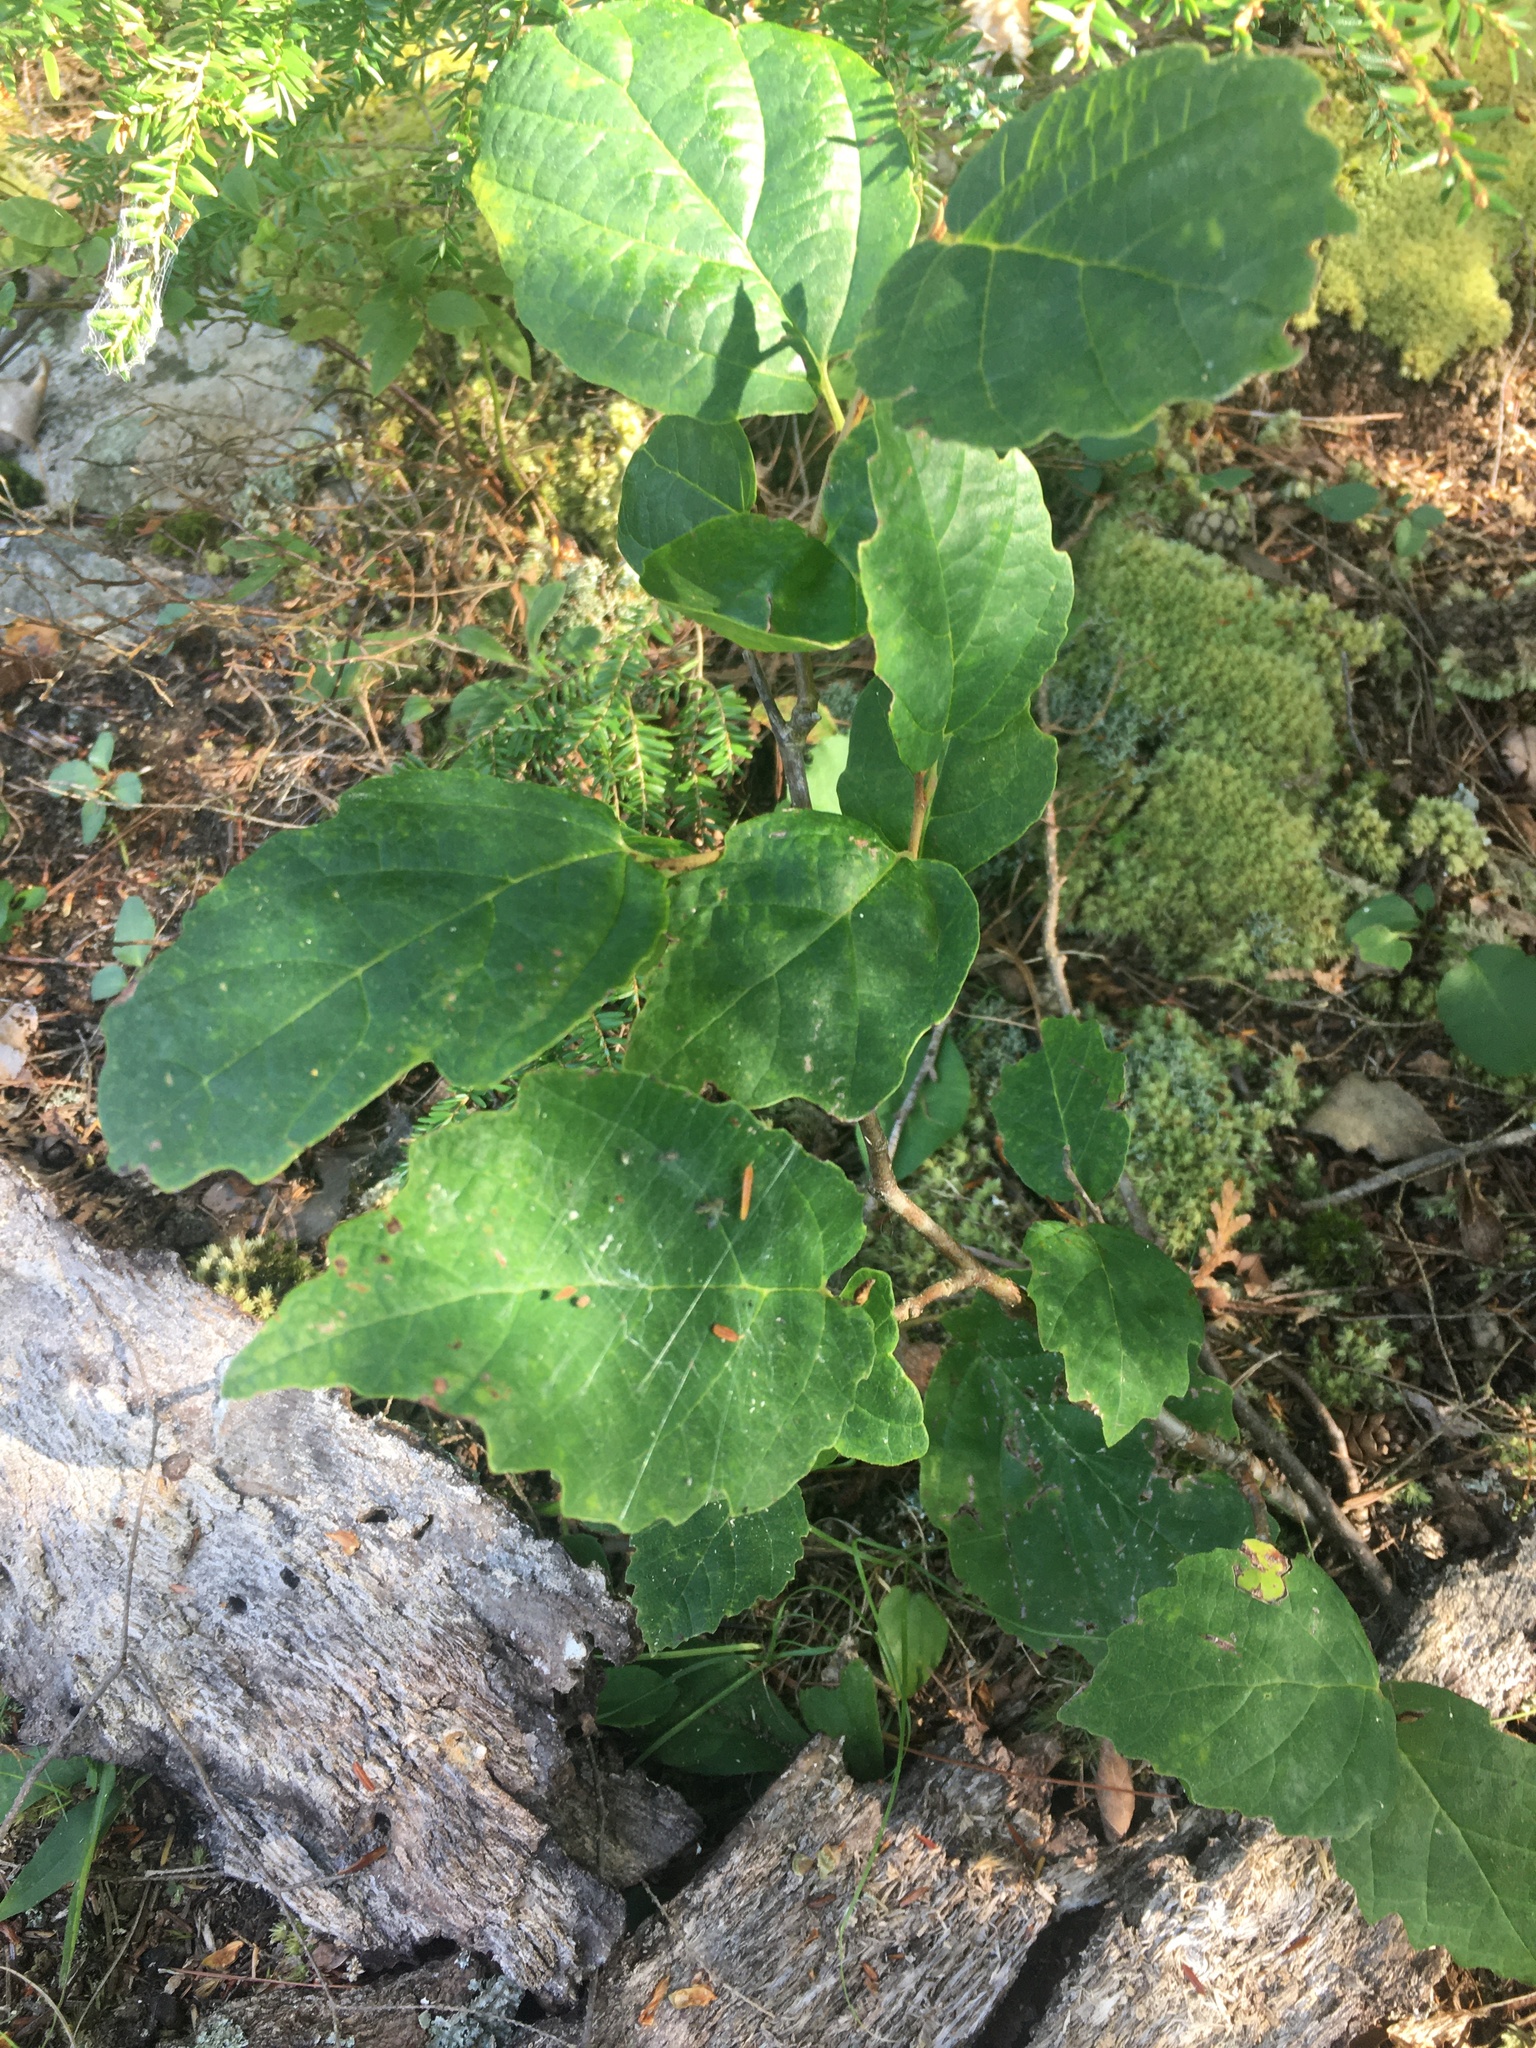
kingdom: Plantae
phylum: Tracheophyta
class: Magnoliopsida
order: Saxifragales
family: Hamamelidaceae
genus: Hamamelis
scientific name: Hamamelis virginiana
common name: Witch-hazel
